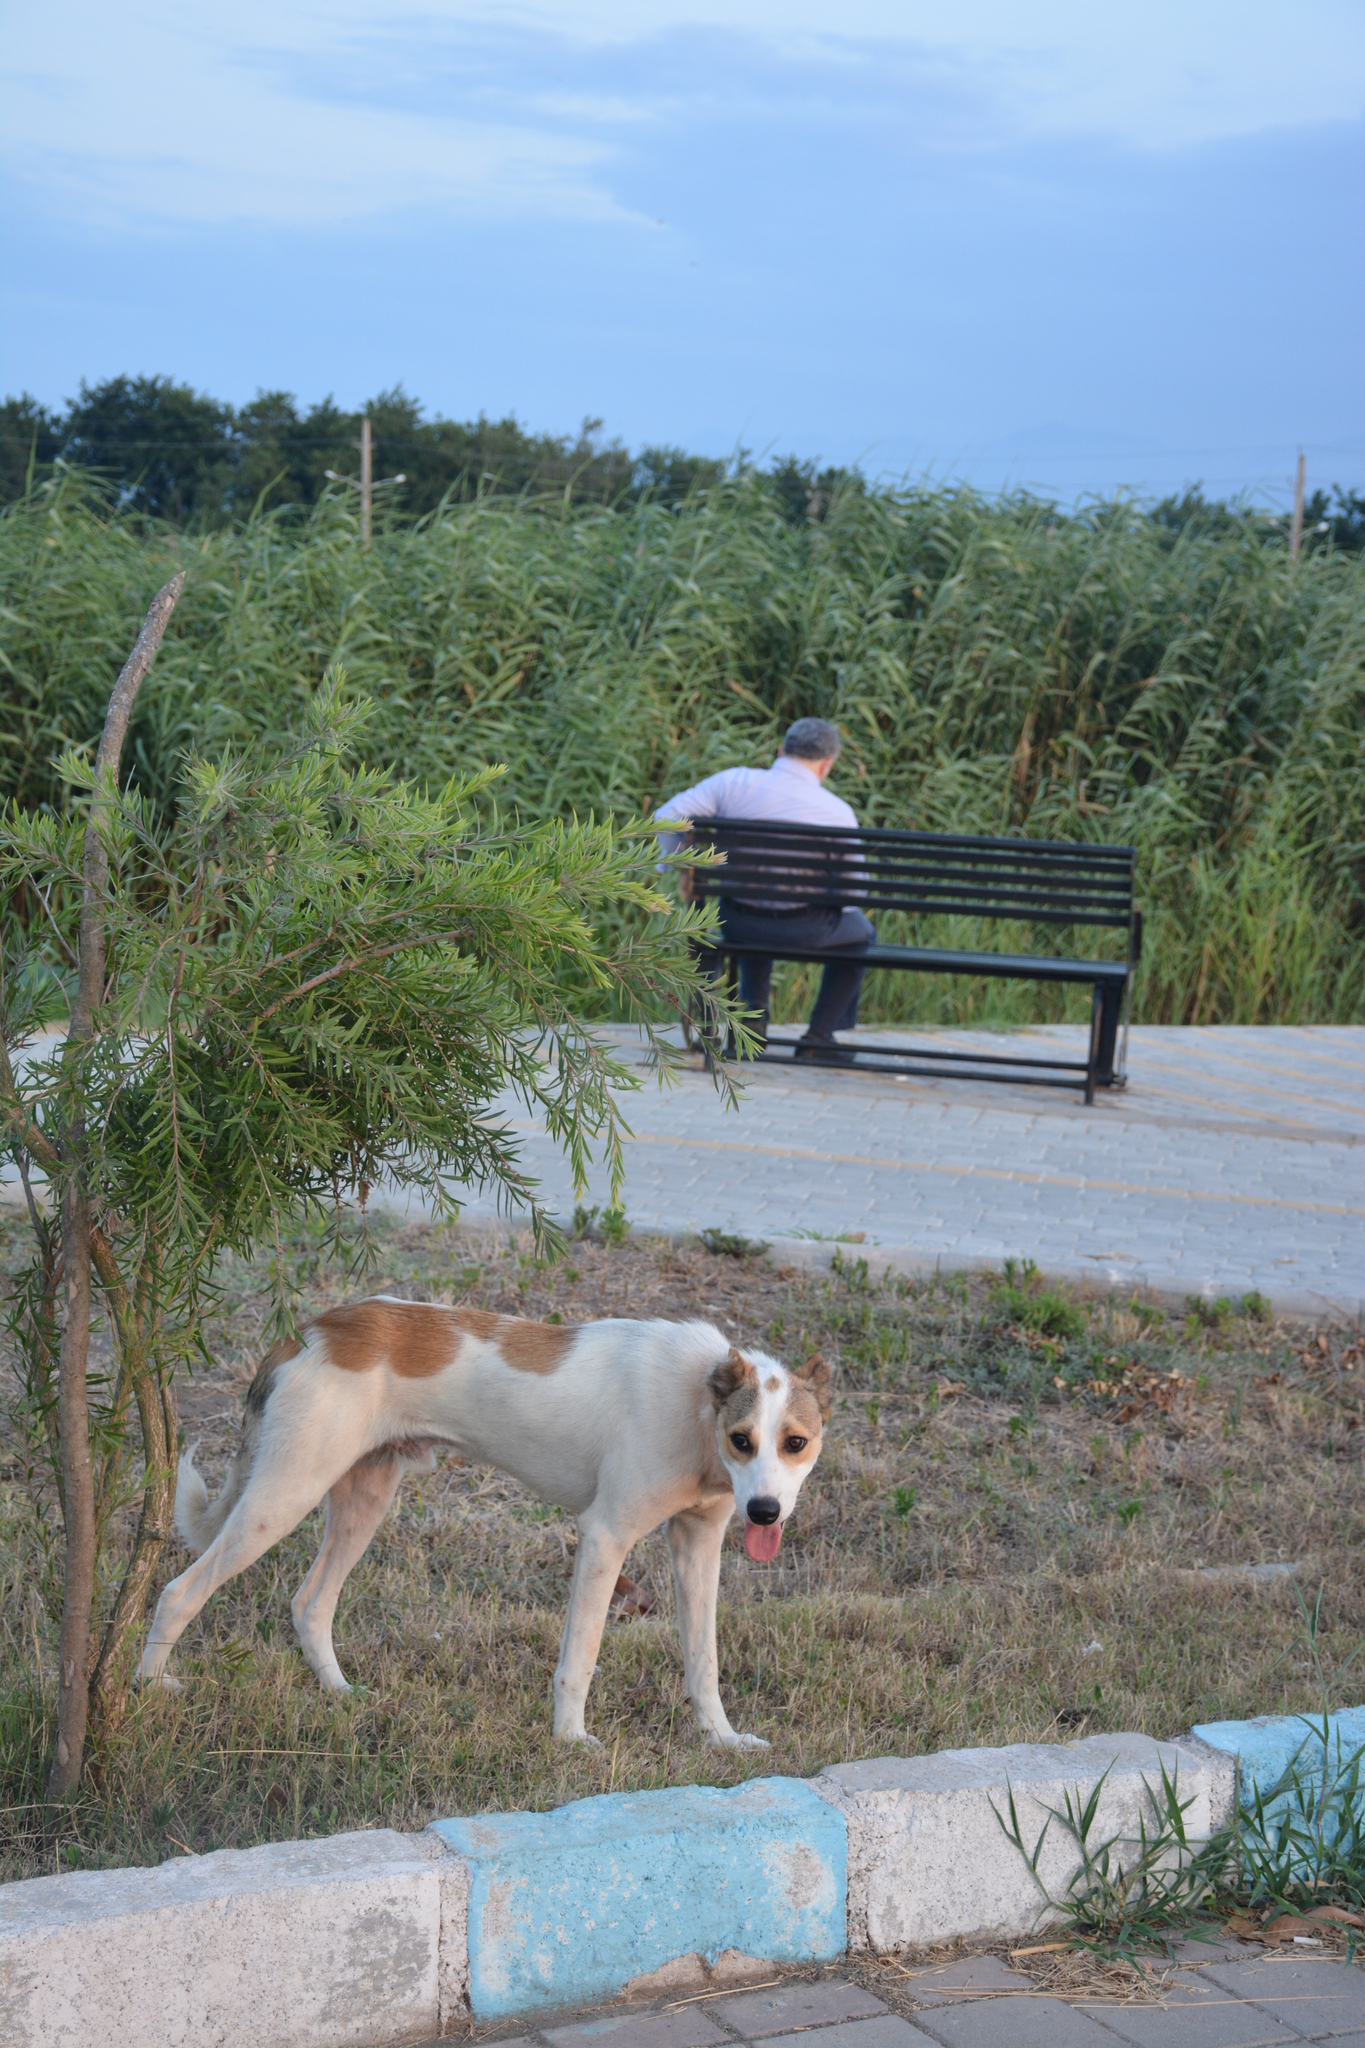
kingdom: Animalia
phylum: Chordata
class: Mammalia
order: Carnivora
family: Canidae
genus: Canis
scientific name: Canis lupus
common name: Gray wolf
